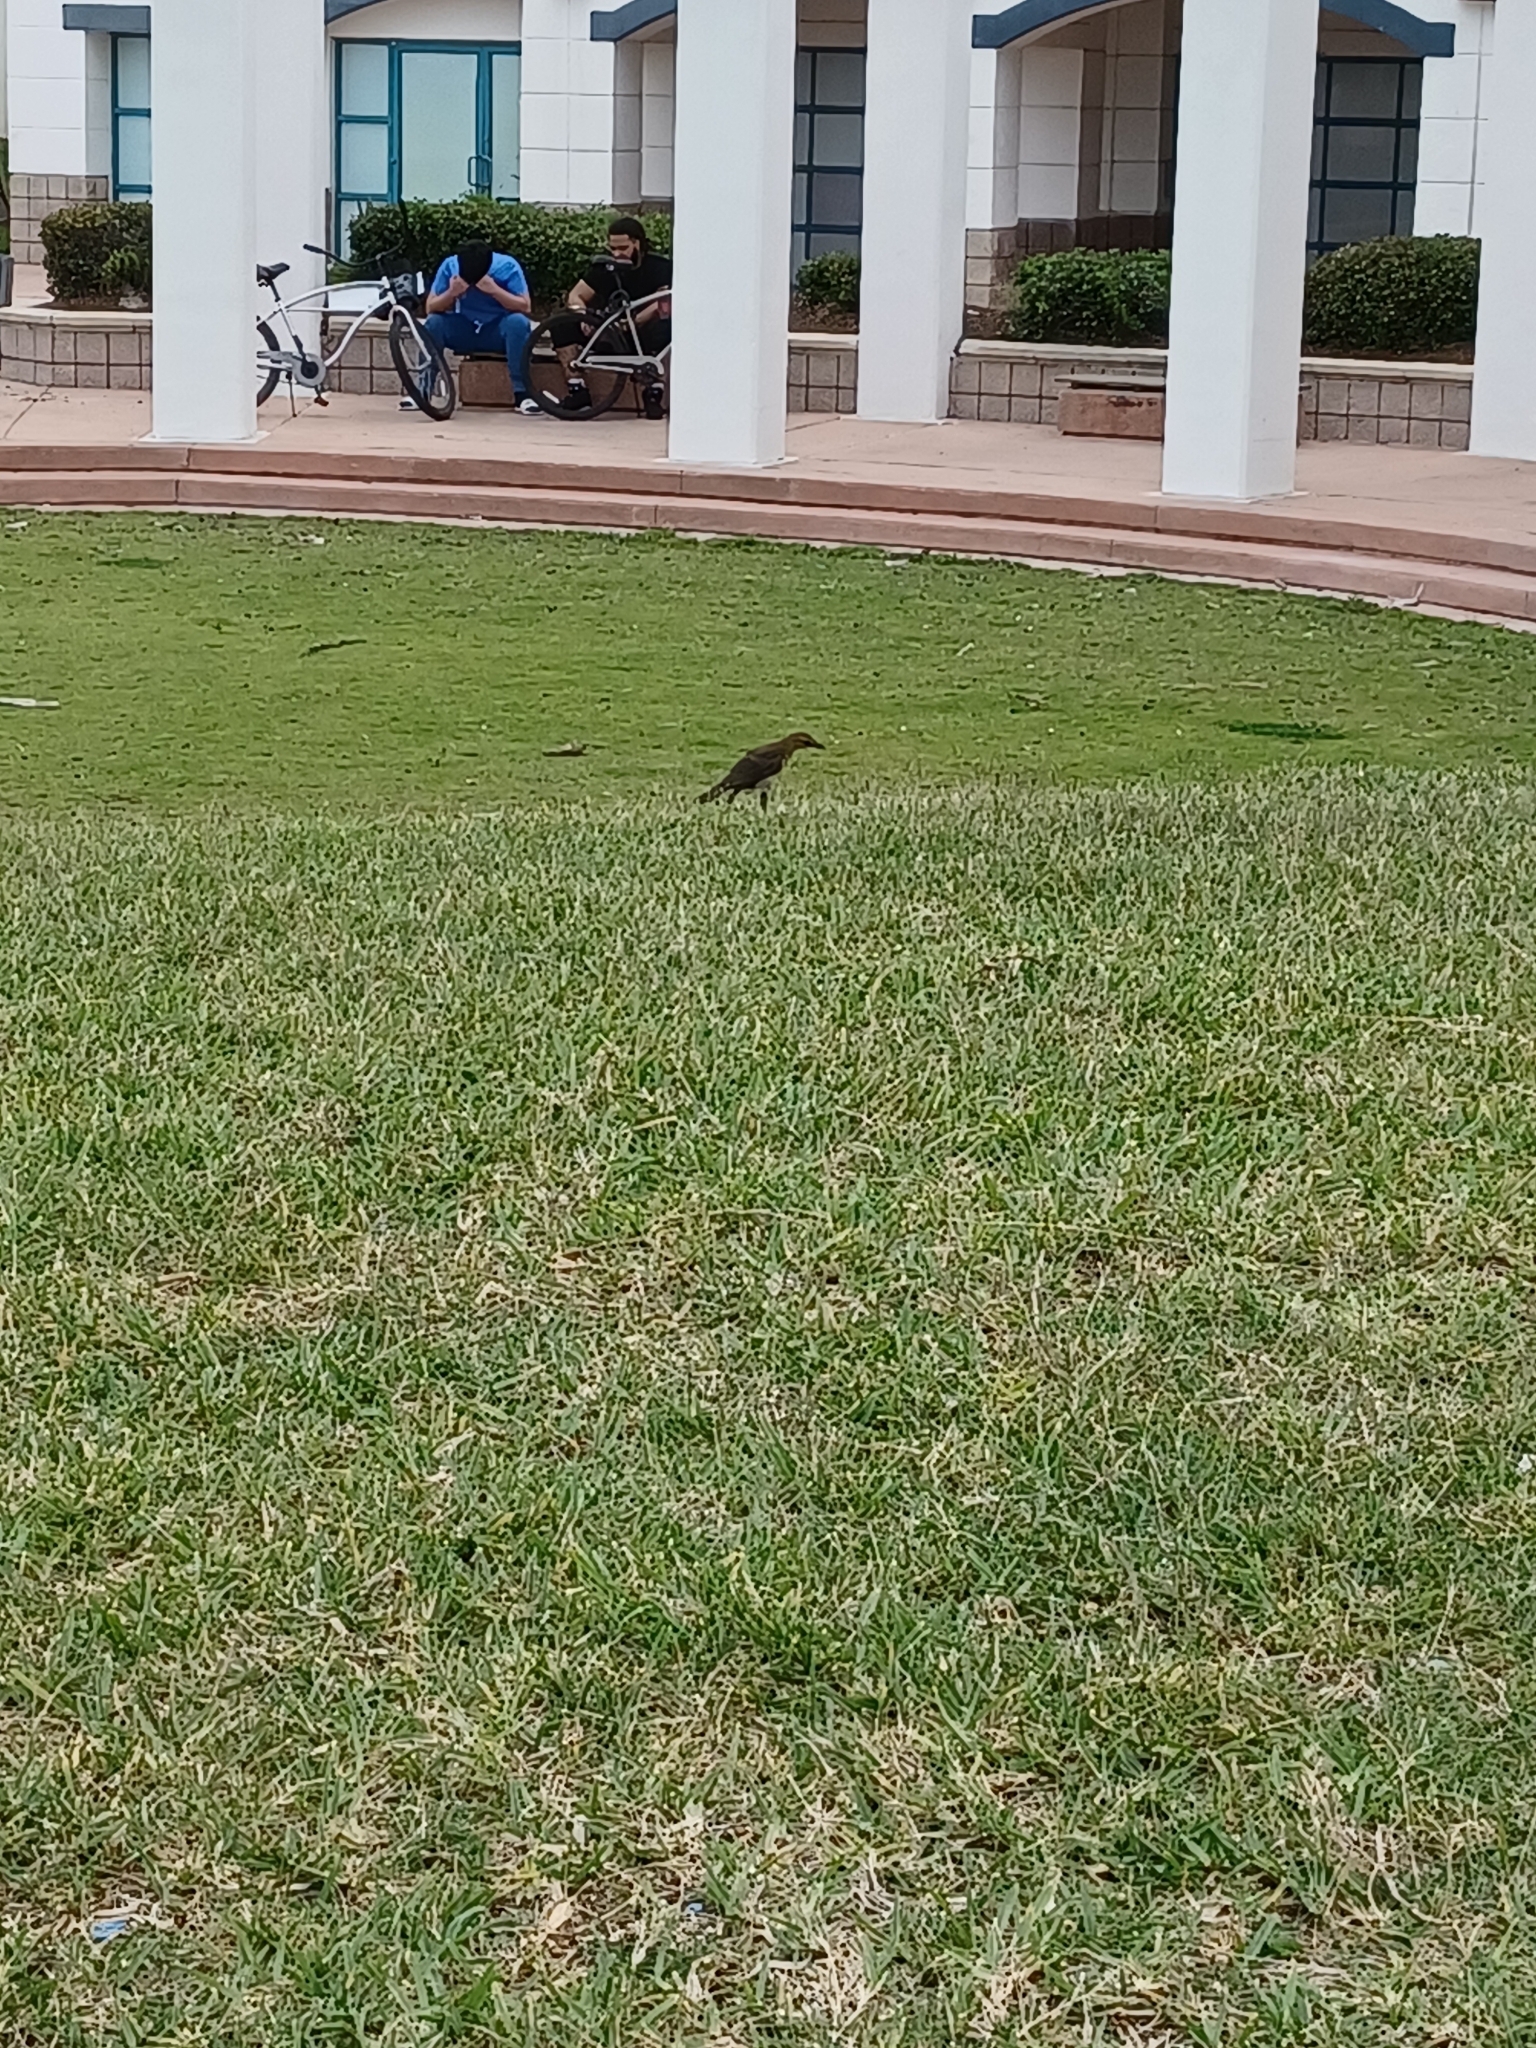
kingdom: Animalia
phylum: Chordata
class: Aves
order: Passeriformes
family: Icteridae
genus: Quiscalus
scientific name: Quiscalus major
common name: Boat-tailed grackle
